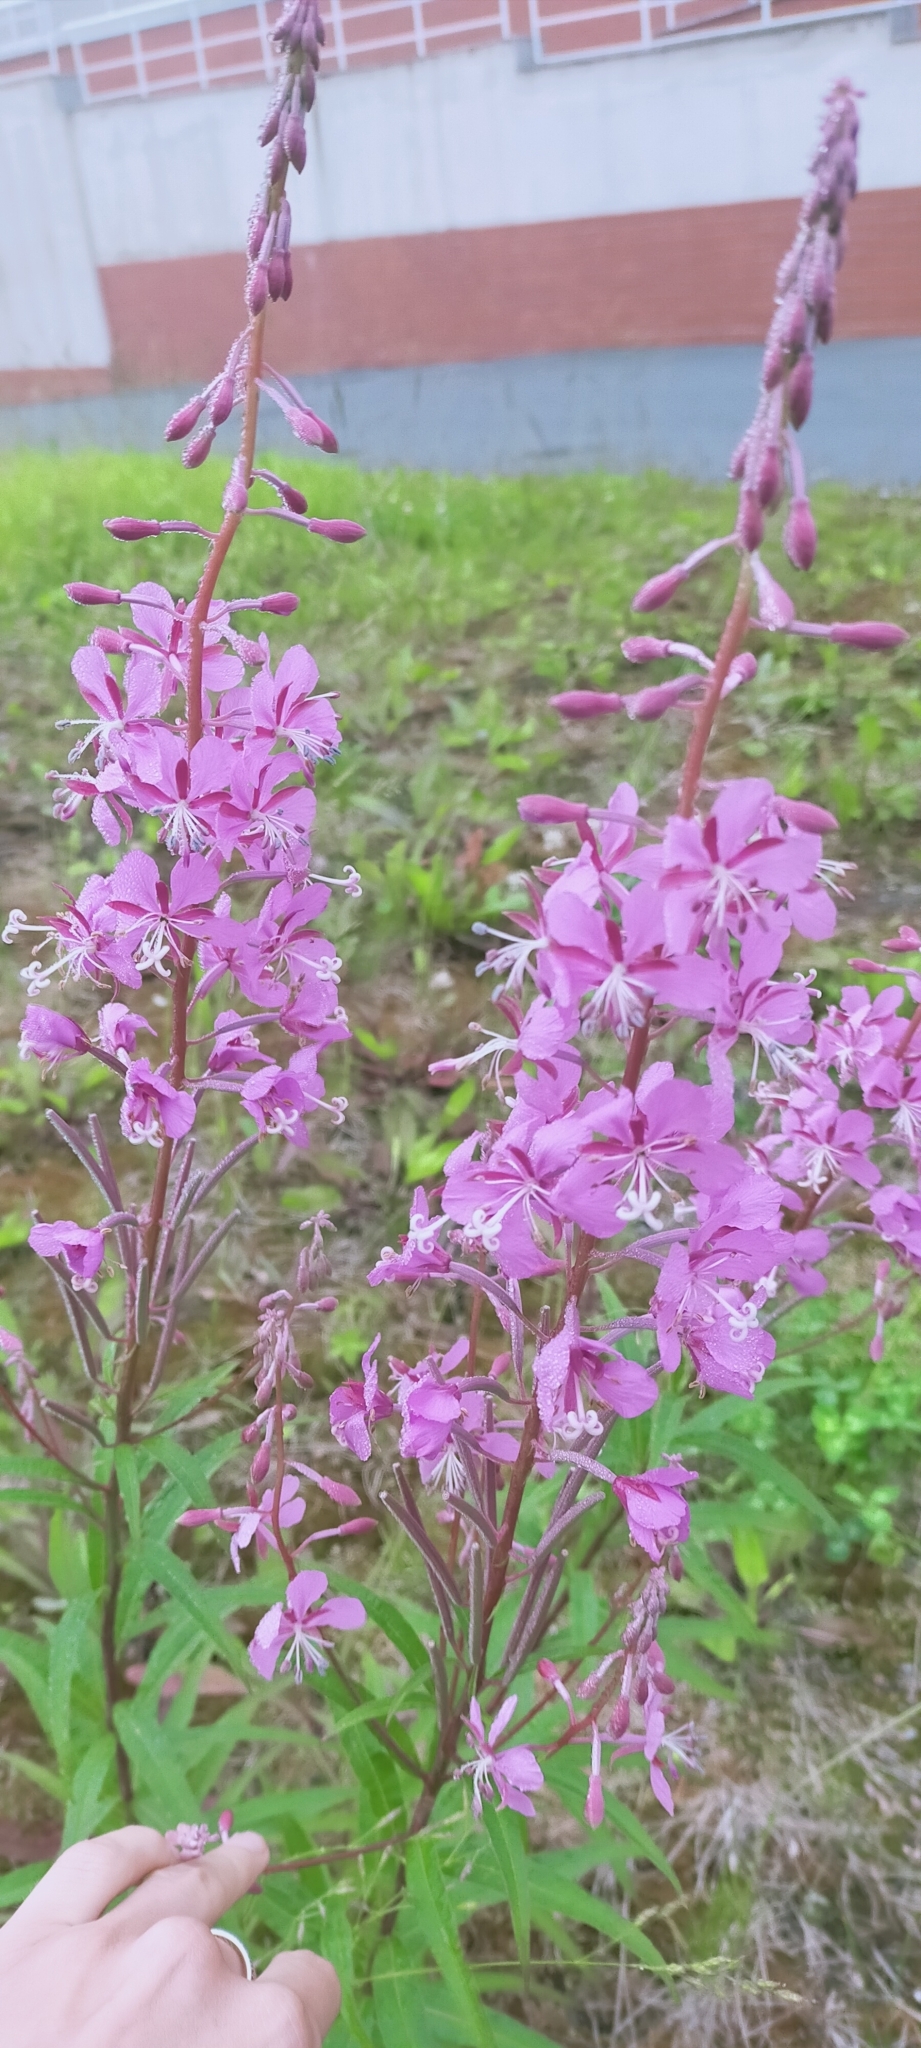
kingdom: Plantae
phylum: Tracheophyta
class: Magnoliopsida
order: Myrtales
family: Onagraceae
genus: Chamaenerion
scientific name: Chamaenerion angustifolium
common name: Fireweed
